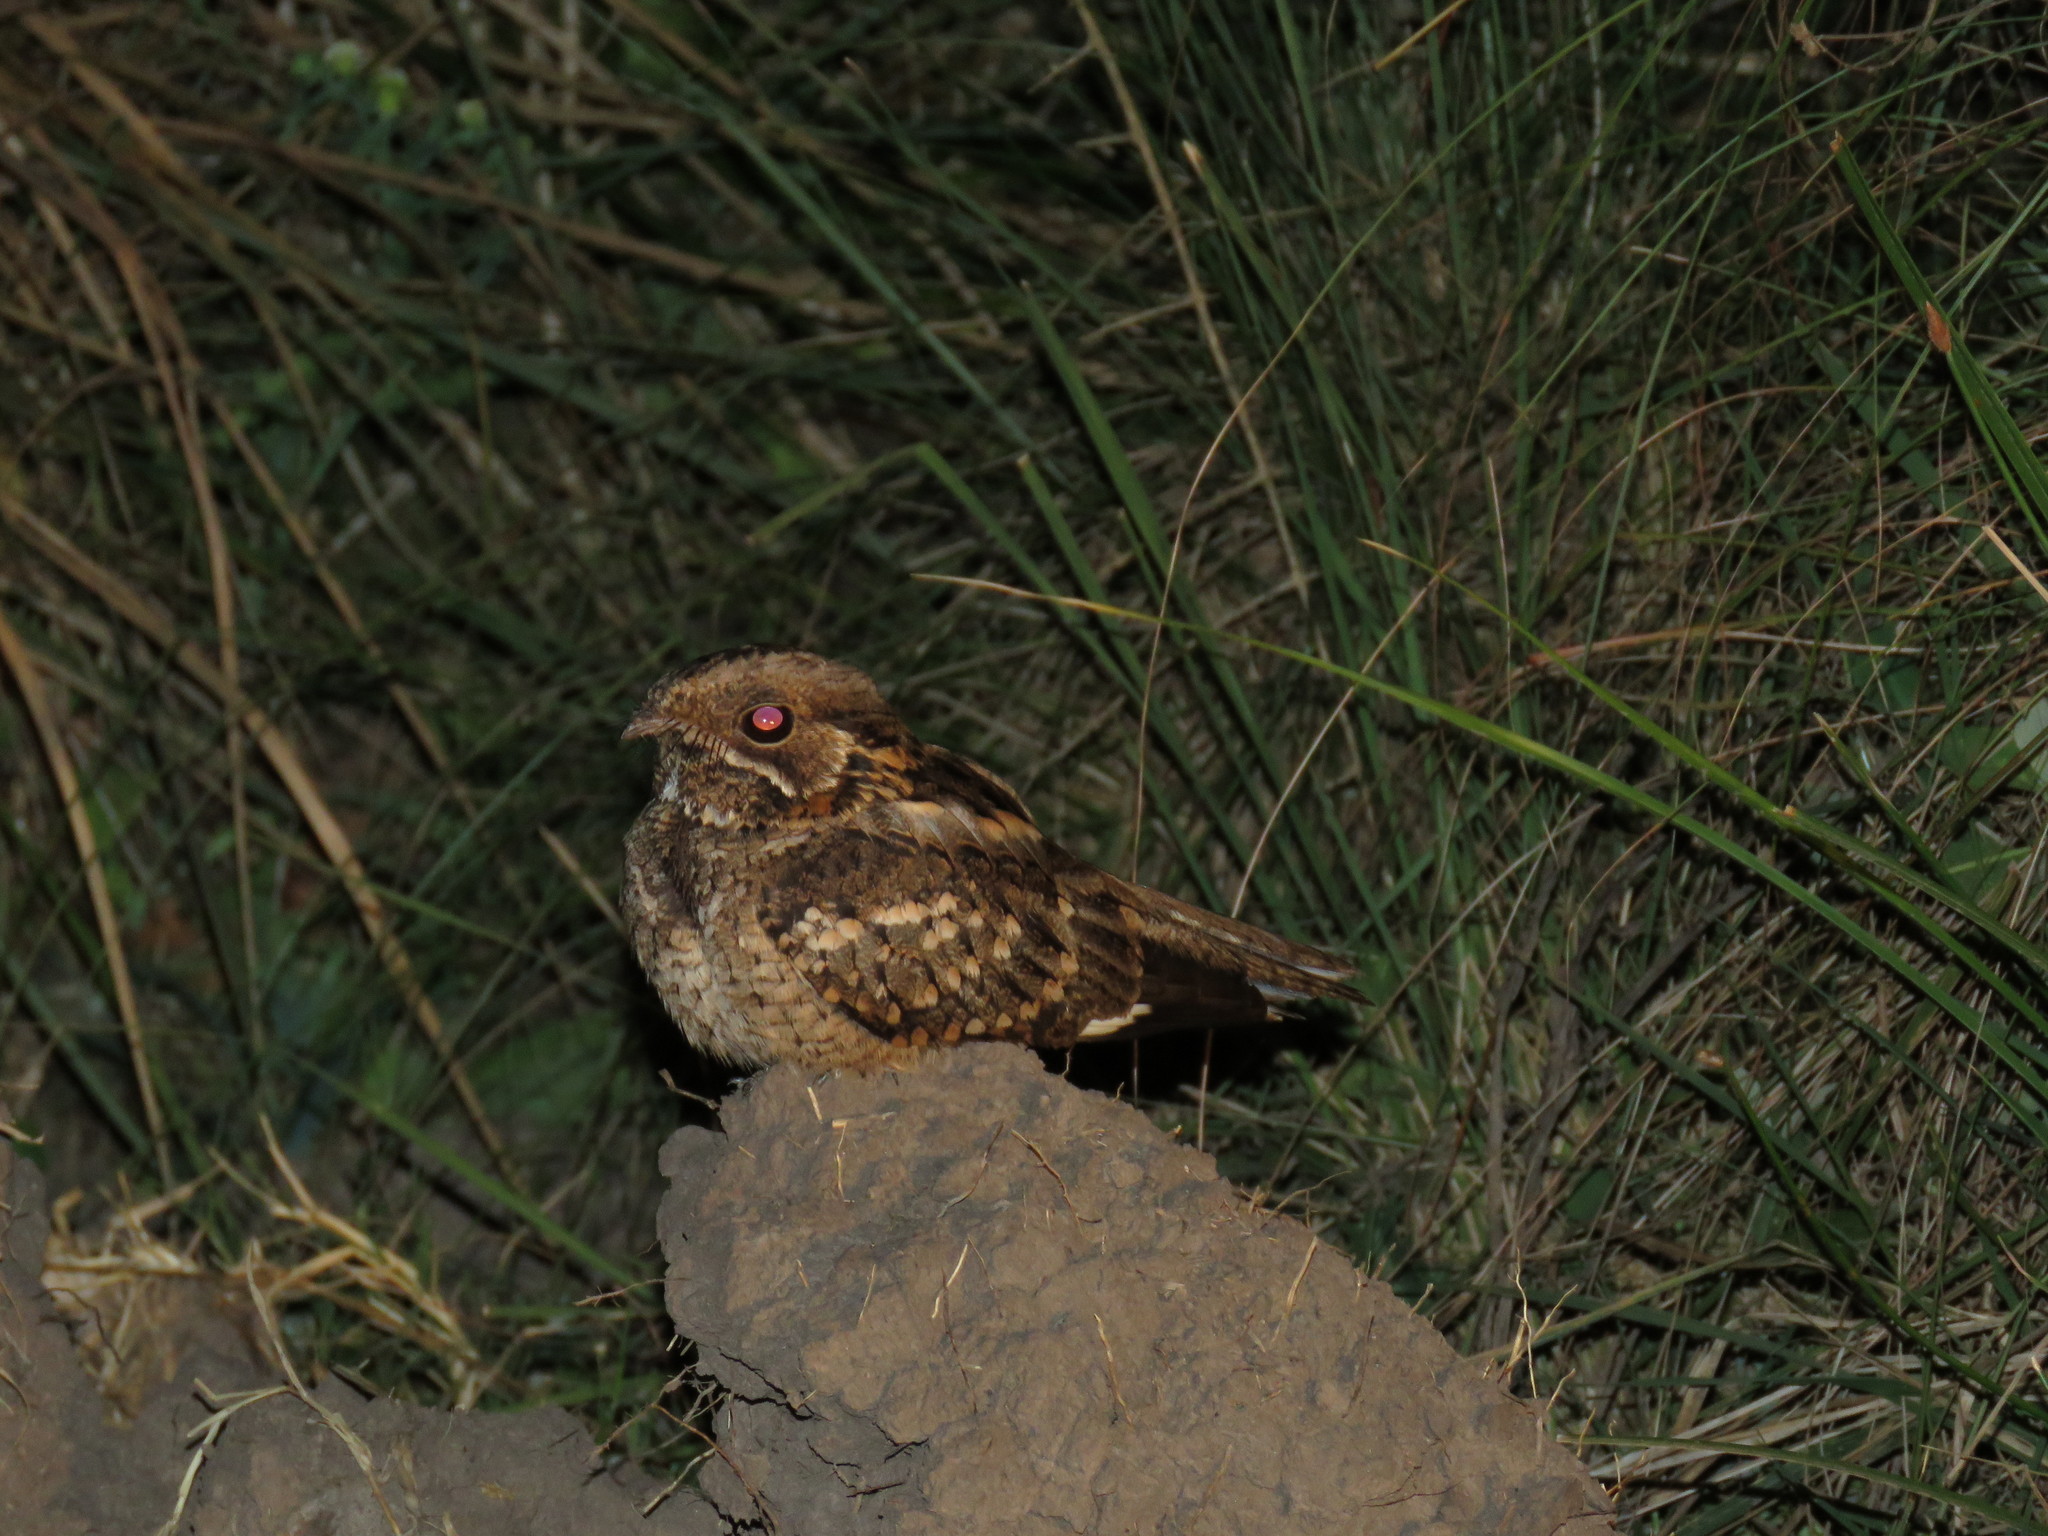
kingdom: Animalia
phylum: Chordata
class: Aves
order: Caprimulgiformes
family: Caprimulgidae
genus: Setopagis
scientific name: Setopagis parvula
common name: Little nightjar
